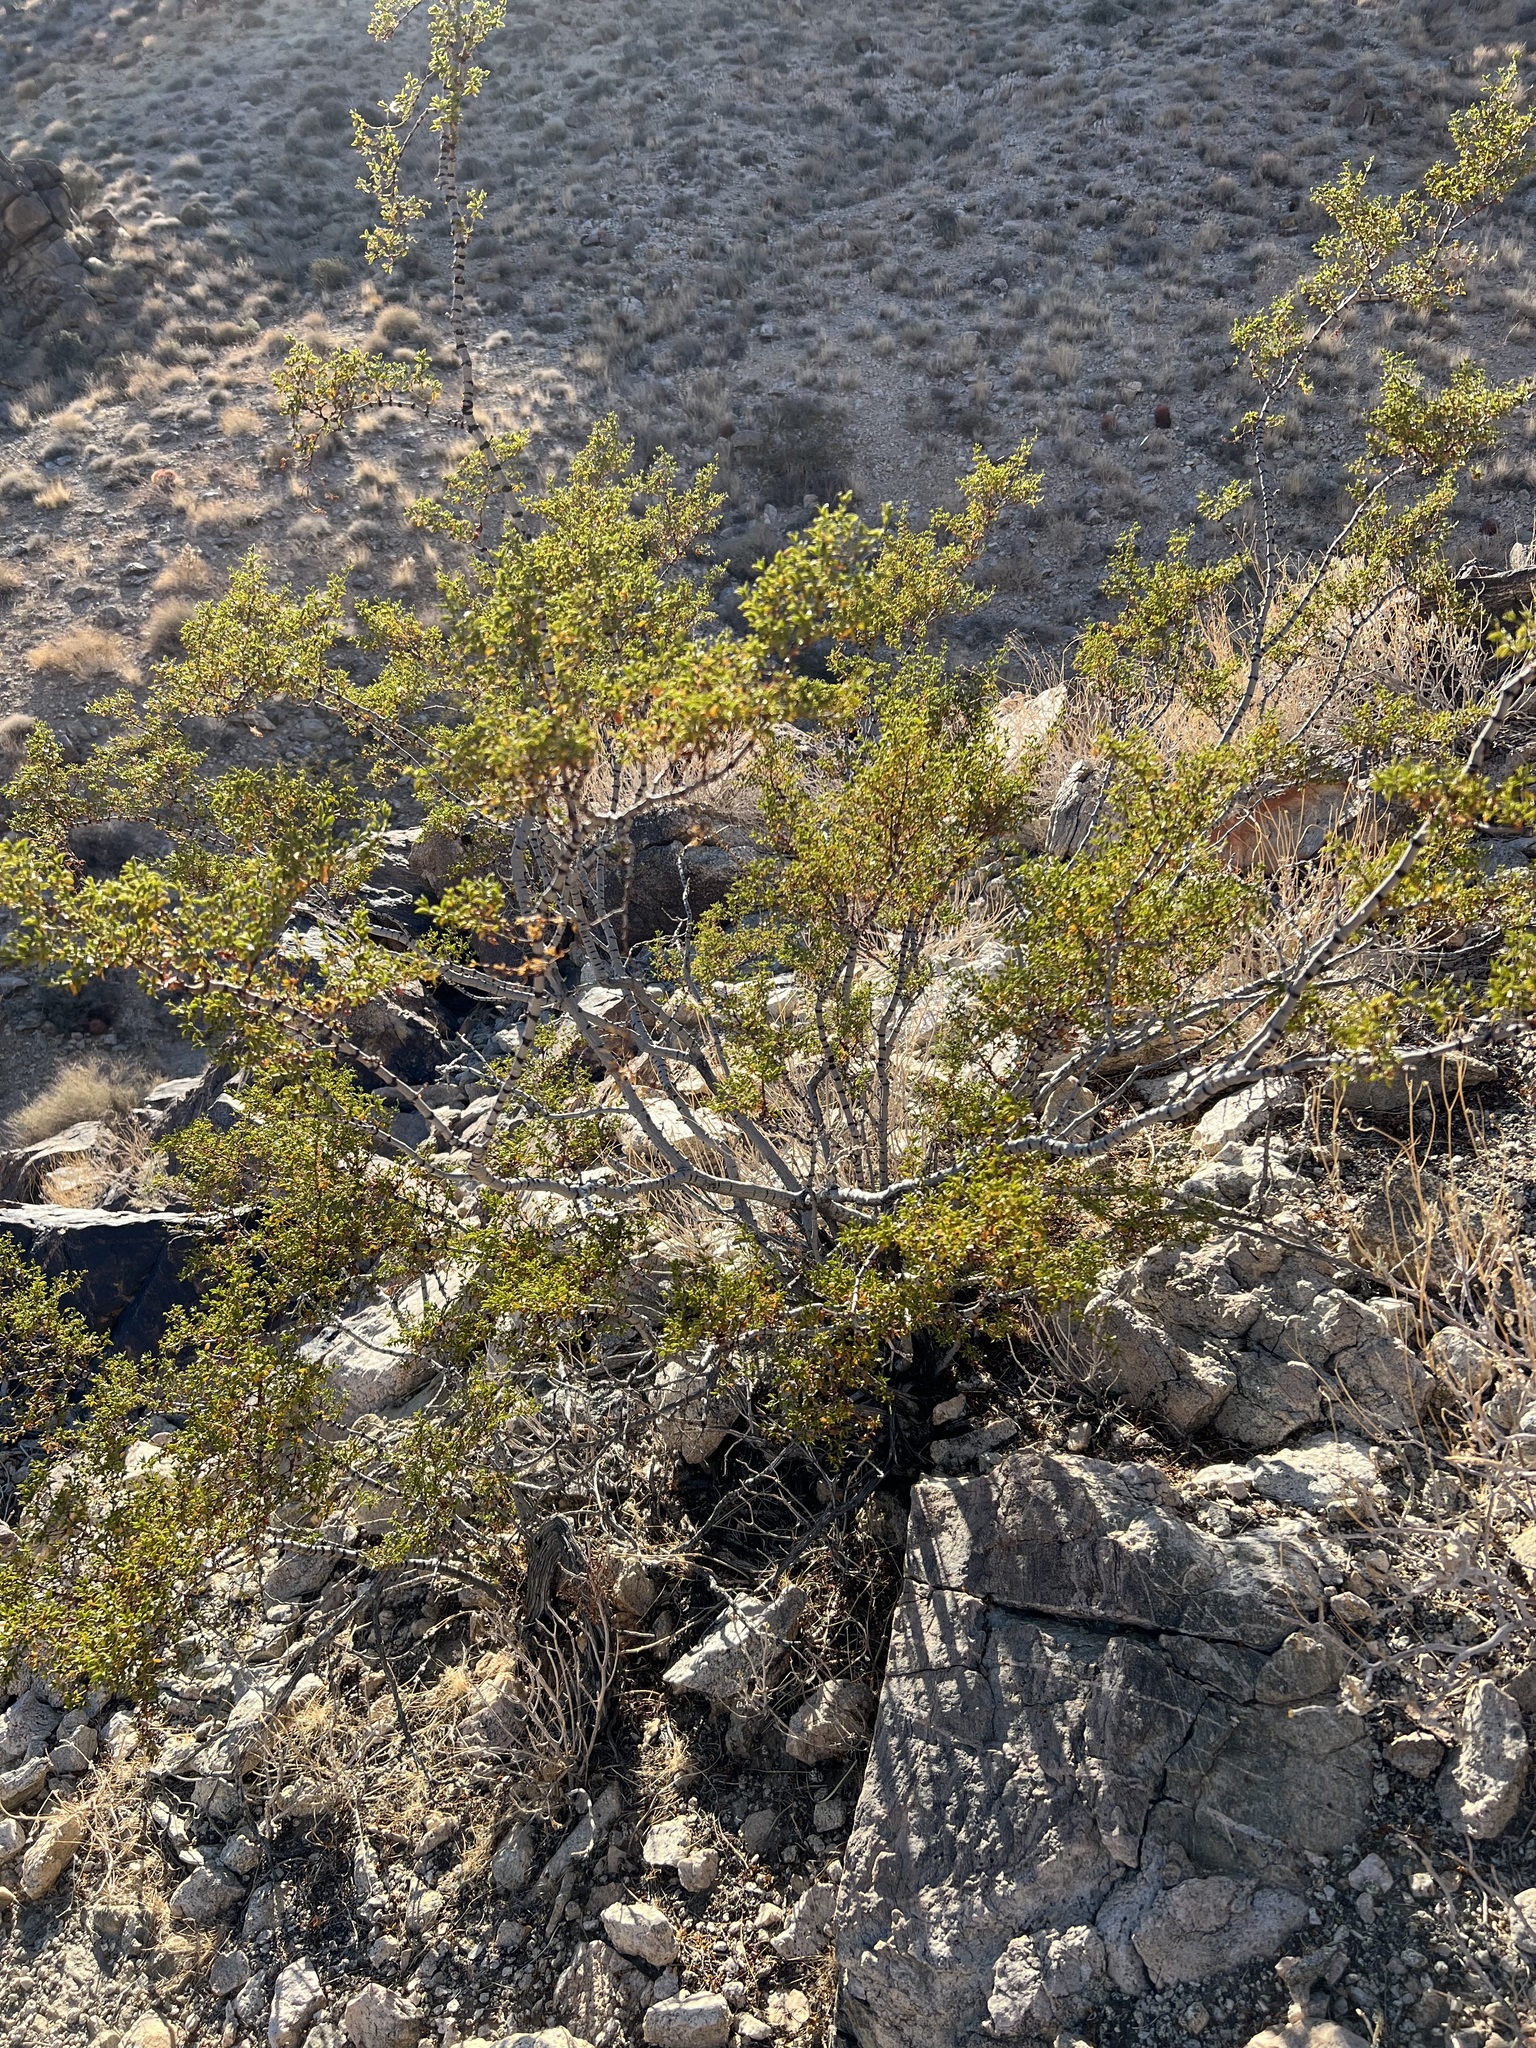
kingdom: Plantae
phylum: Tracheophyta
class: Magnoliopsida
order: Zygophyllales
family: Zygophyllaceae
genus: Larrea
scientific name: Larrea tridentata
